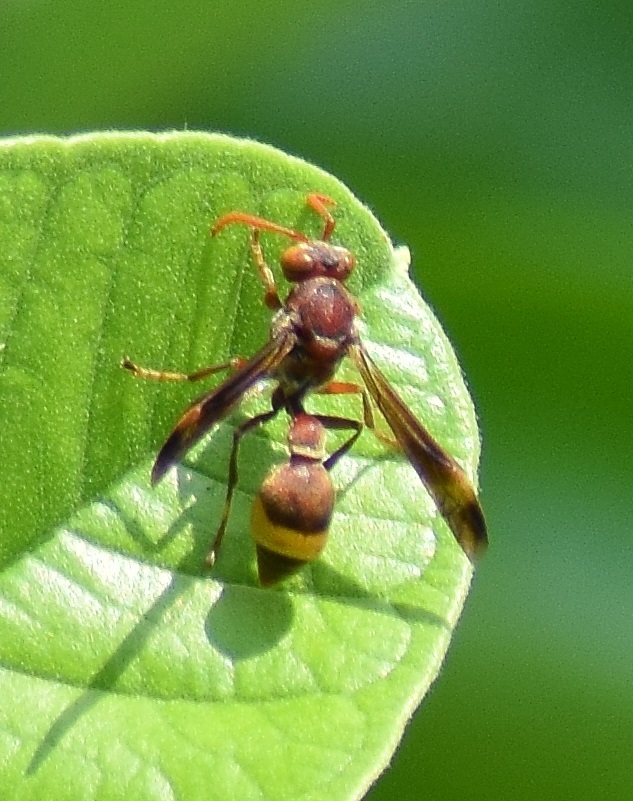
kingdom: Animalia
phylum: Arthropoda
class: Insecta
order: Hymenoptera
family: Vespidae
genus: Ropalidia
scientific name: Ropalidia
